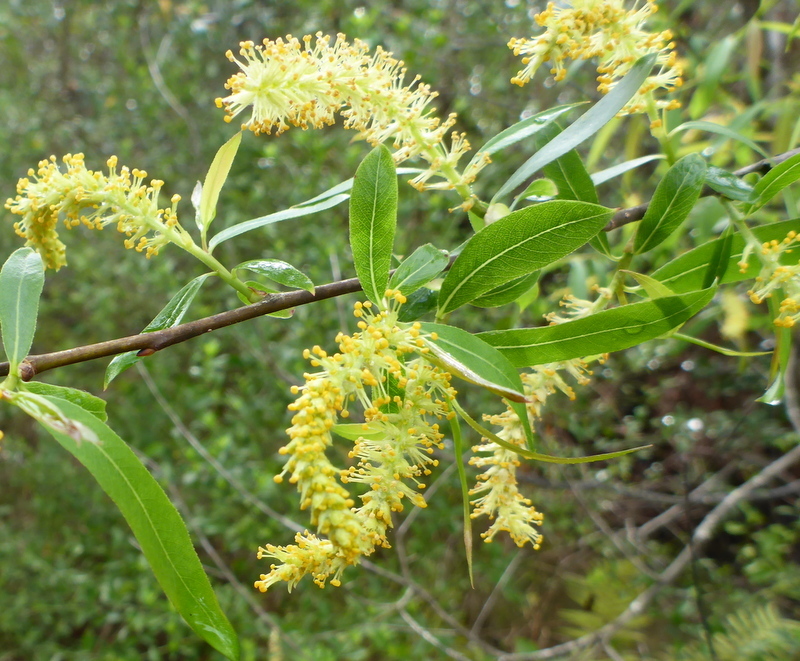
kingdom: Plantae
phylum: Tracheophyta
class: Magnoliopsida
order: Malpighiales
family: Salicaceae
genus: Salix
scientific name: Salix caroliniana
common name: Carolina willow
